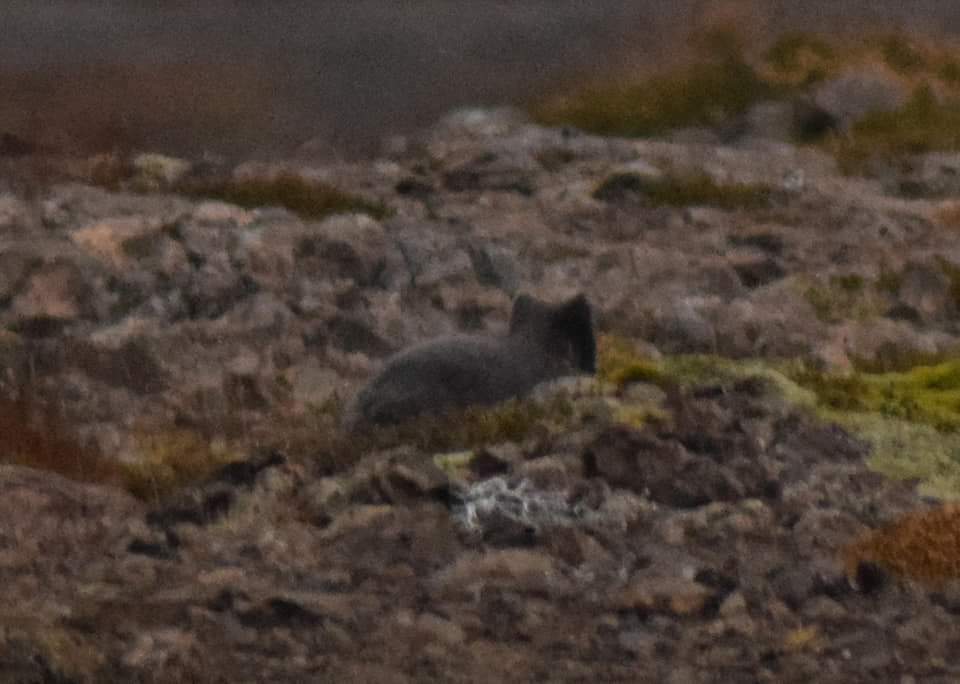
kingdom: Animalia
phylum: Chordata
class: Mammalia
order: Carnivora
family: Canidae
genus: Vulpes
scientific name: Vulpes lagopus
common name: Arctic fox
